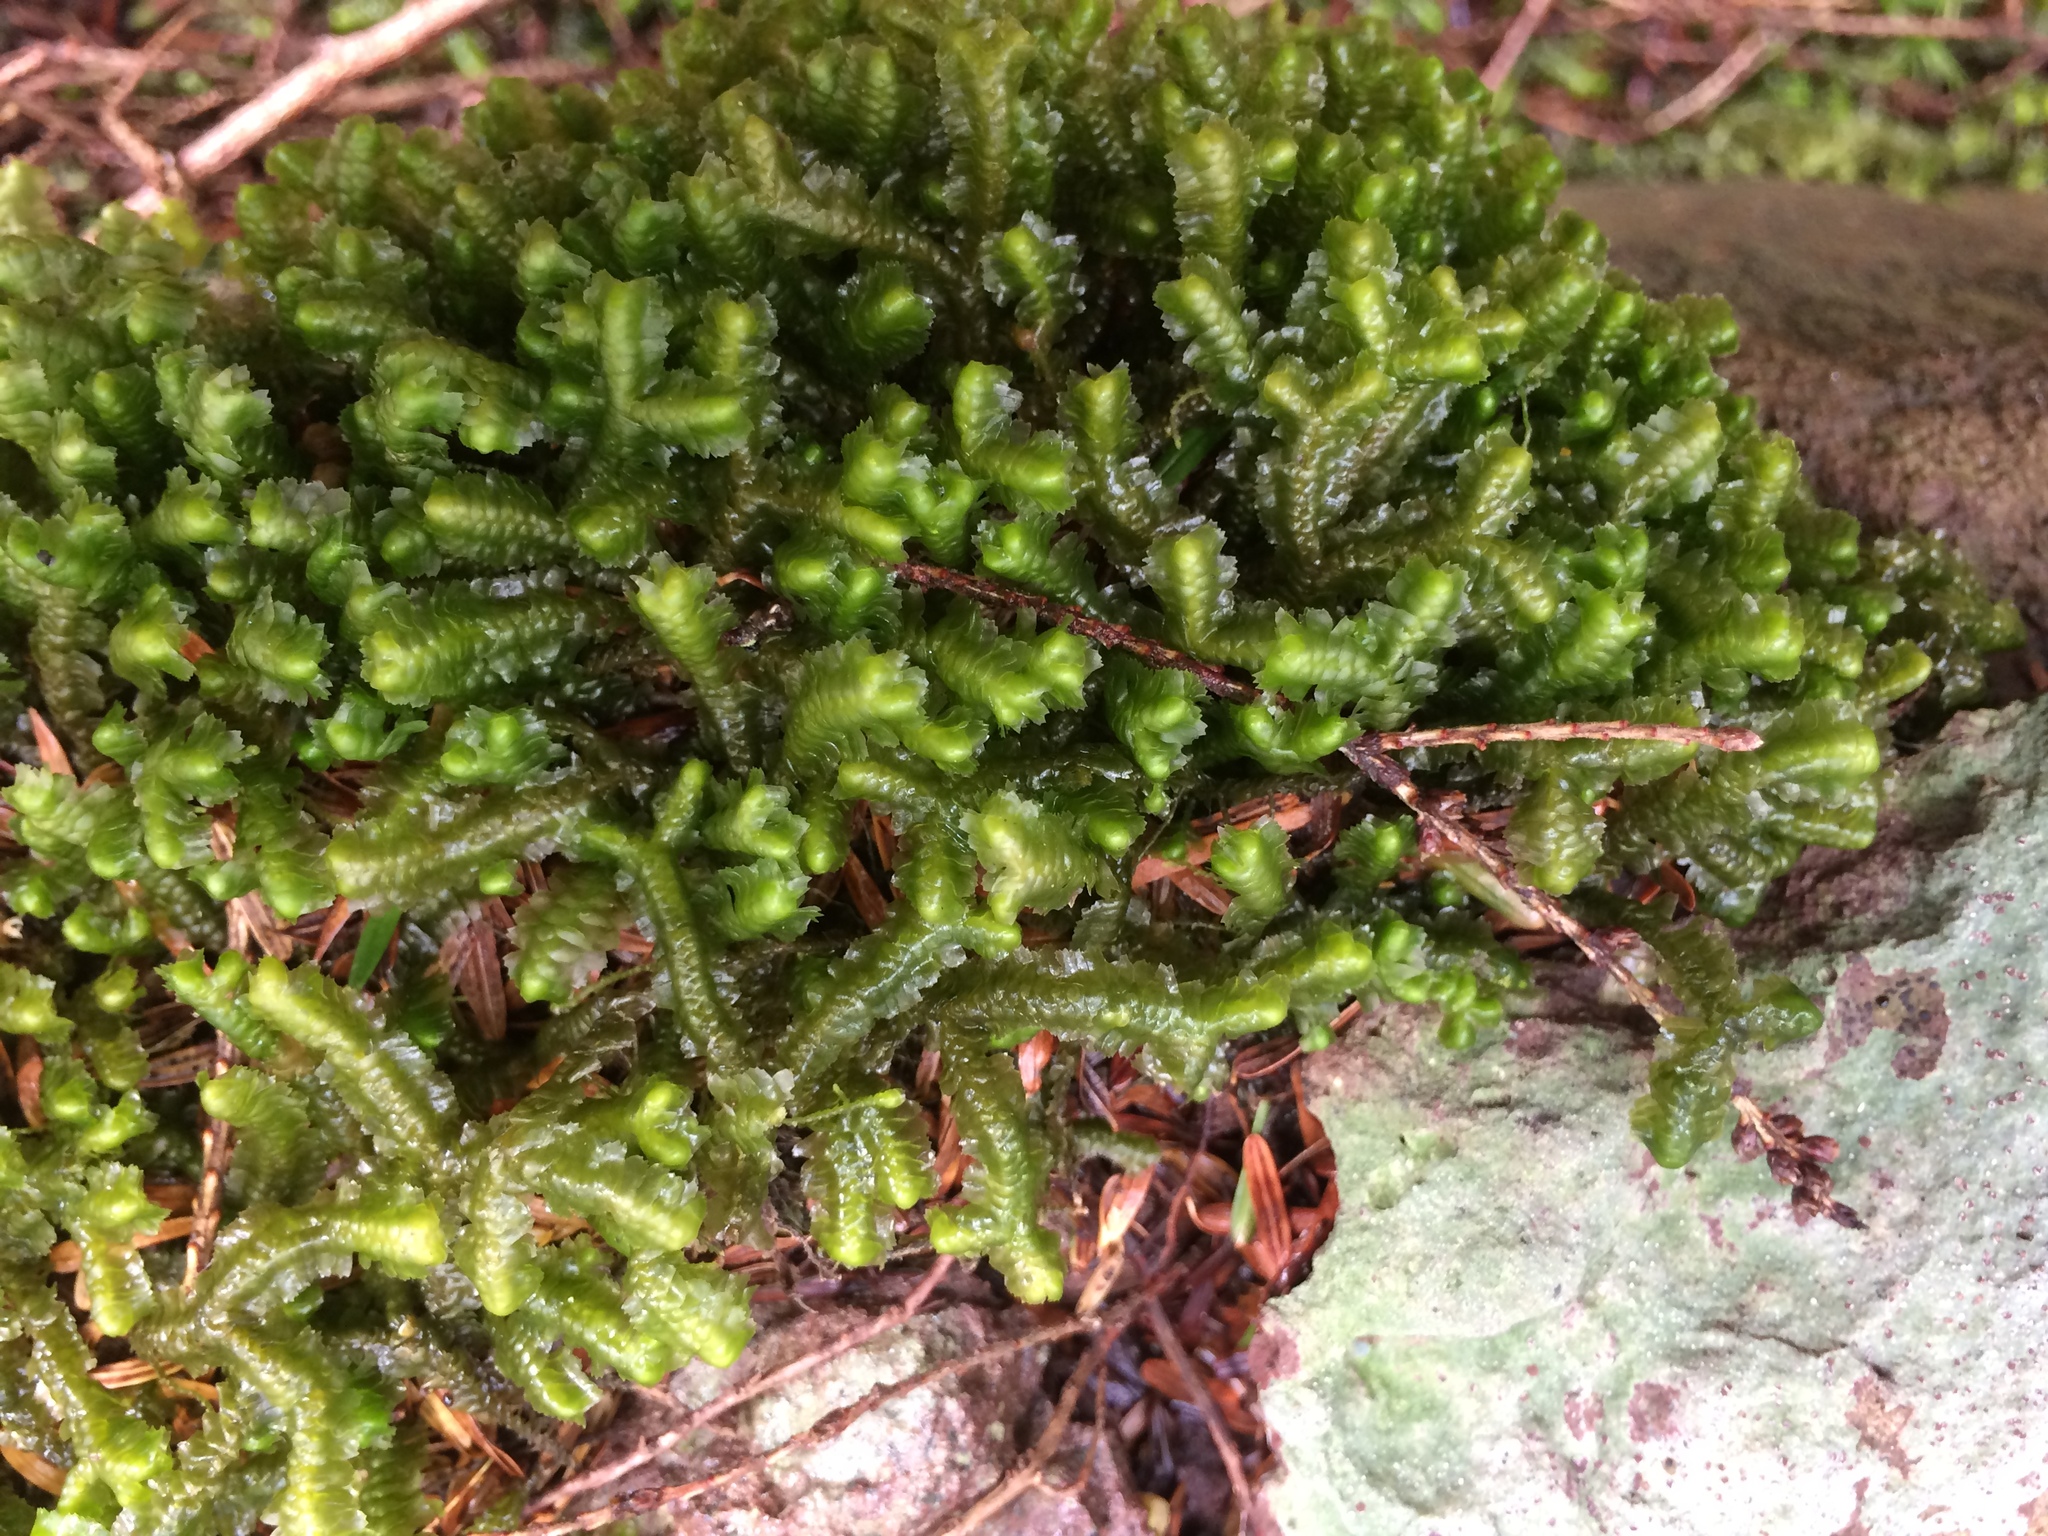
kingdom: Plantae
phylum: Marchantiophyta
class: Jungermanniopsida
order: Jungermanniales
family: Lepidoziaceae
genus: Bazzania
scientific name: Bazzania trilobata
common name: Three-lobed whipwort
